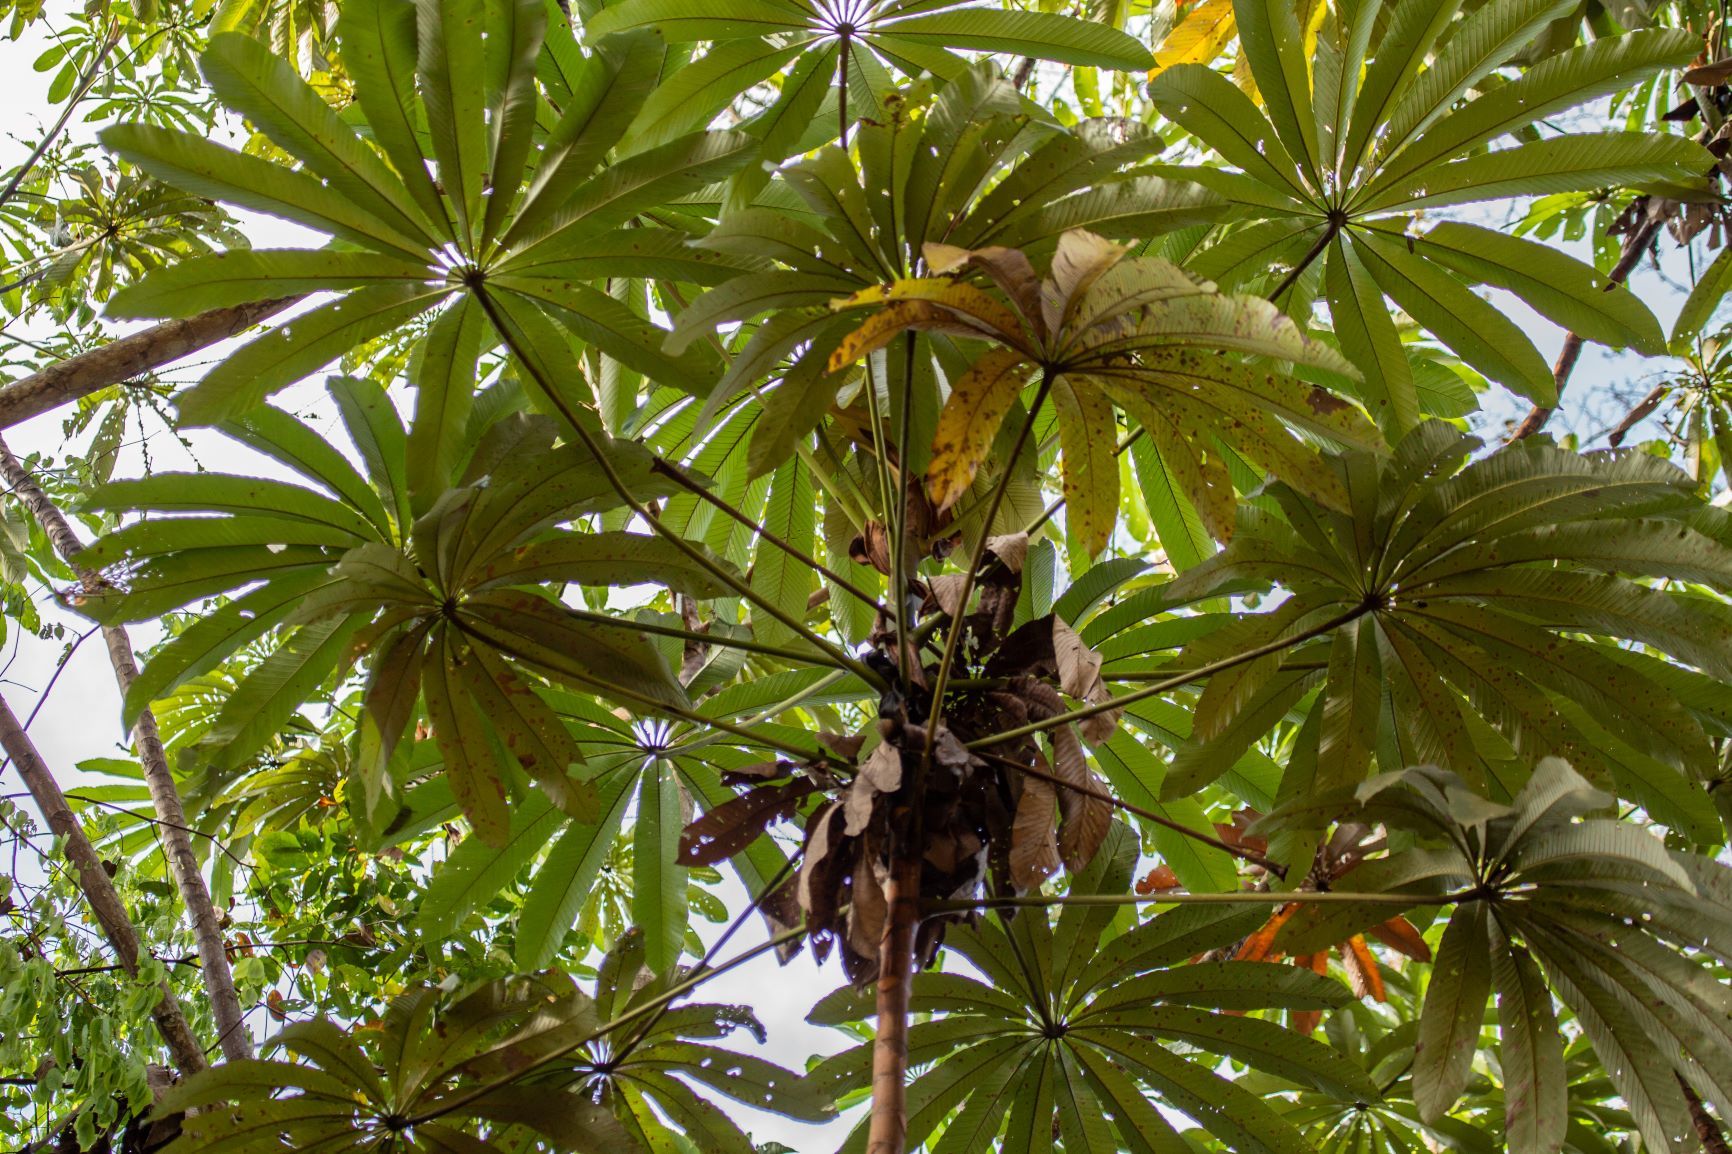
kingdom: Plantae
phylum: Tracheophyta
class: Magnoliopsida
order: Rosales
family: Urticaceae
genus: Cecropia
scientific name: Cecropia sciadophylla
